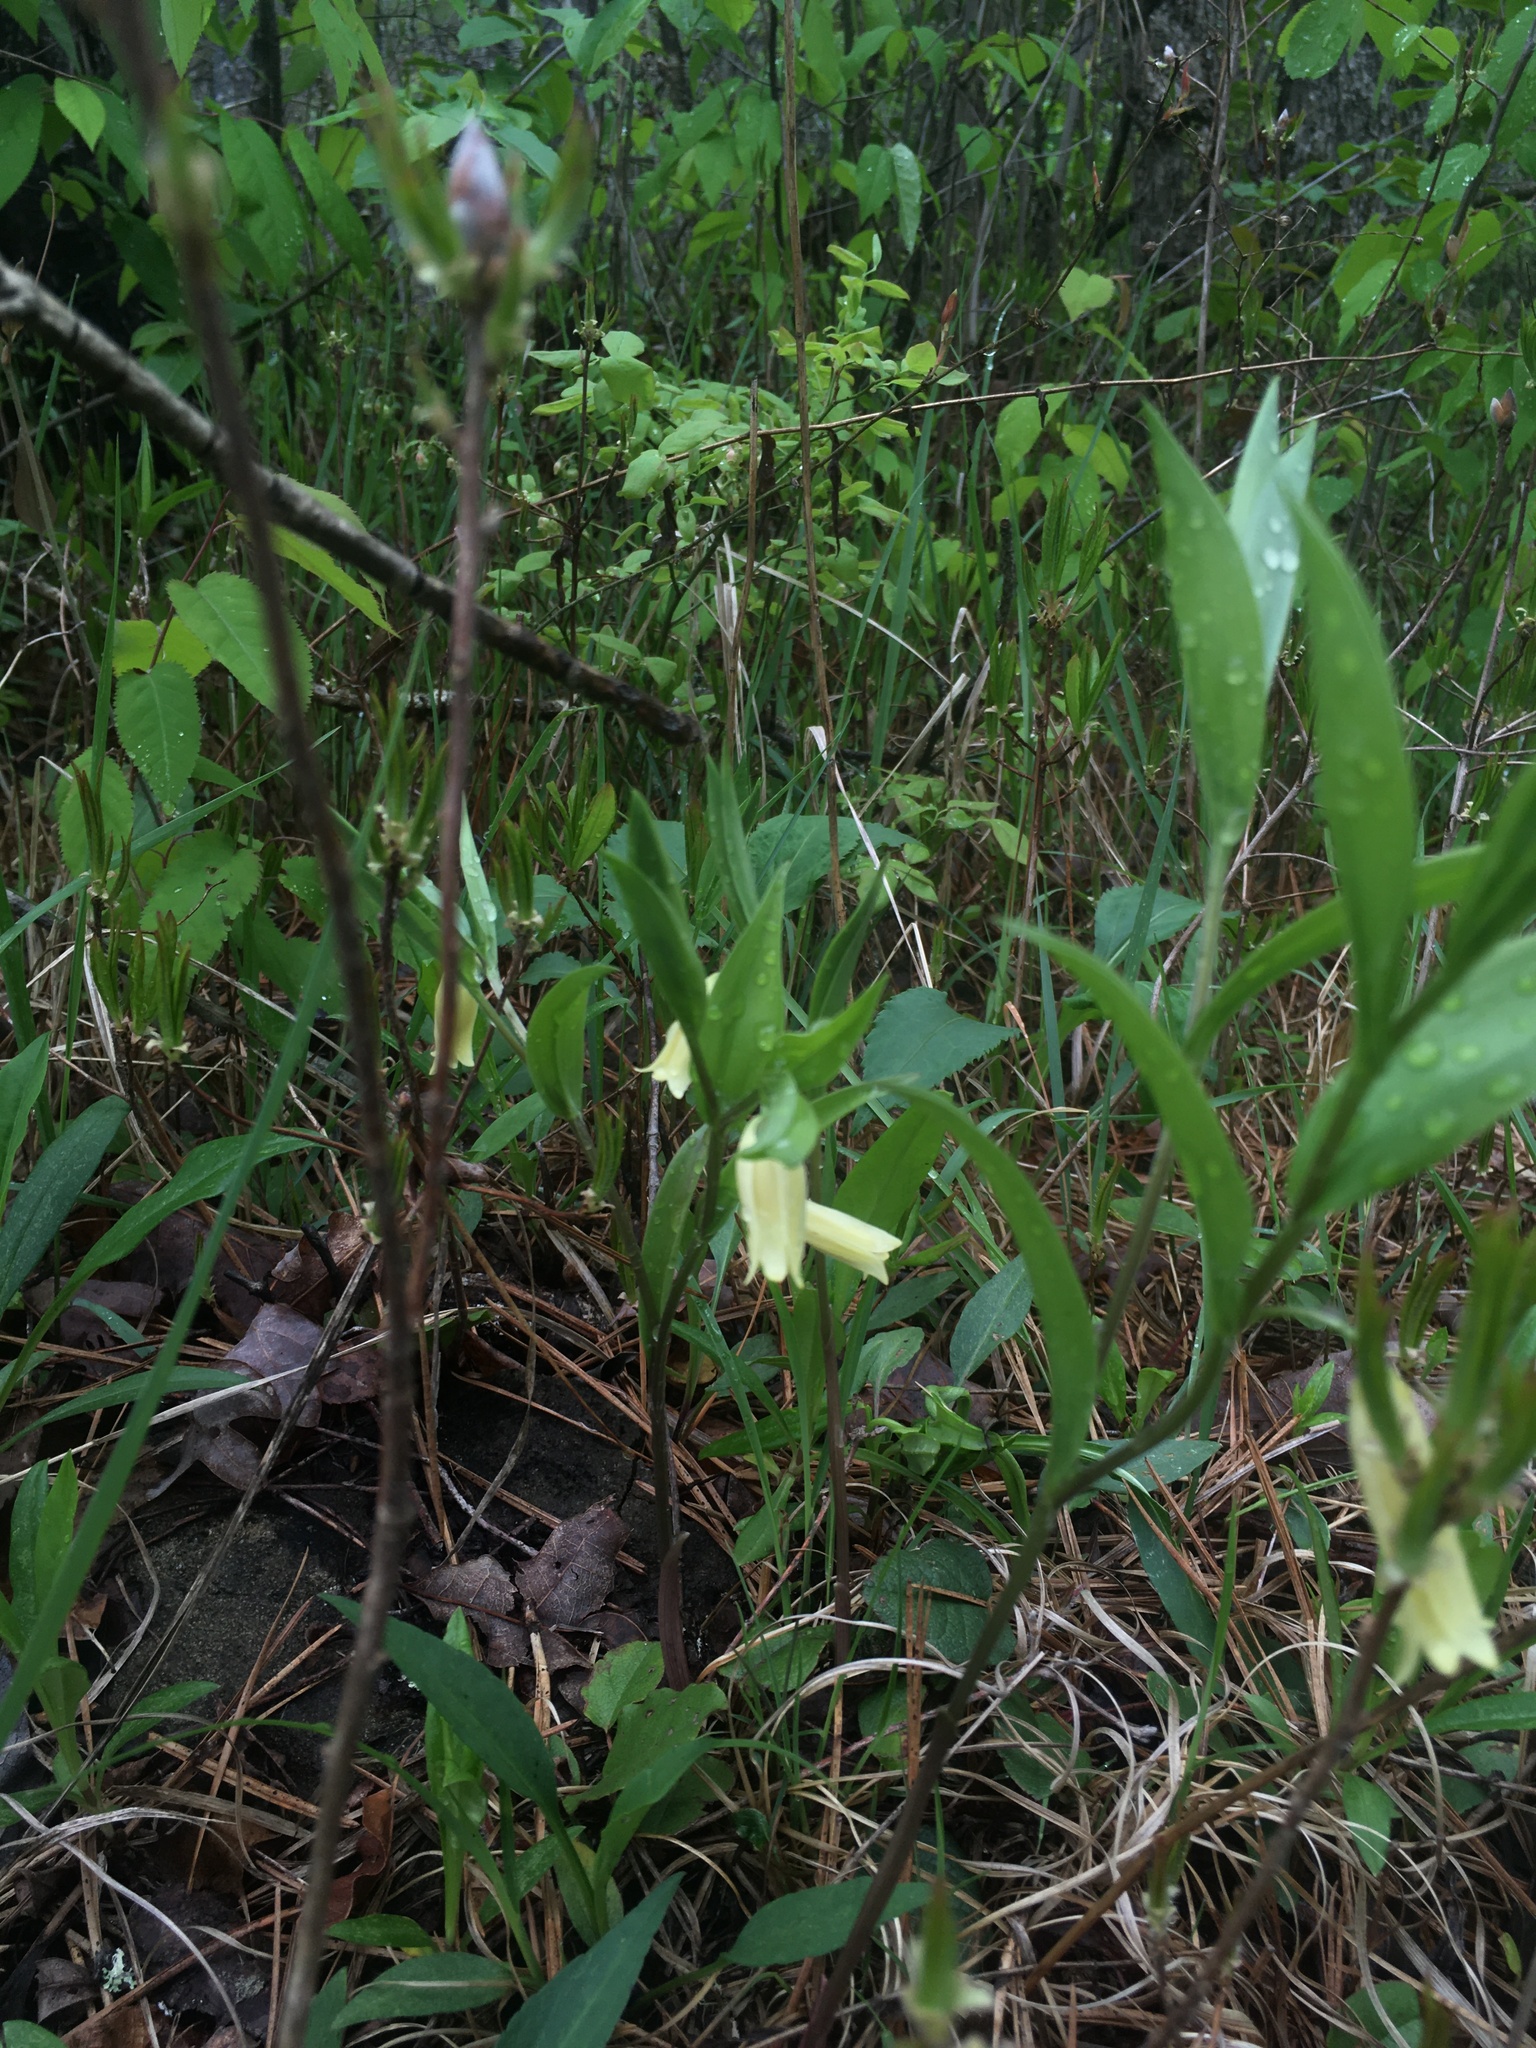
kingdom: Plantae
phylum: Tracheophyta
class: Liliopsida
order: Liliales
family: Colchicaceae
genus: Uvularia
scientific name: Uvularia puberula
